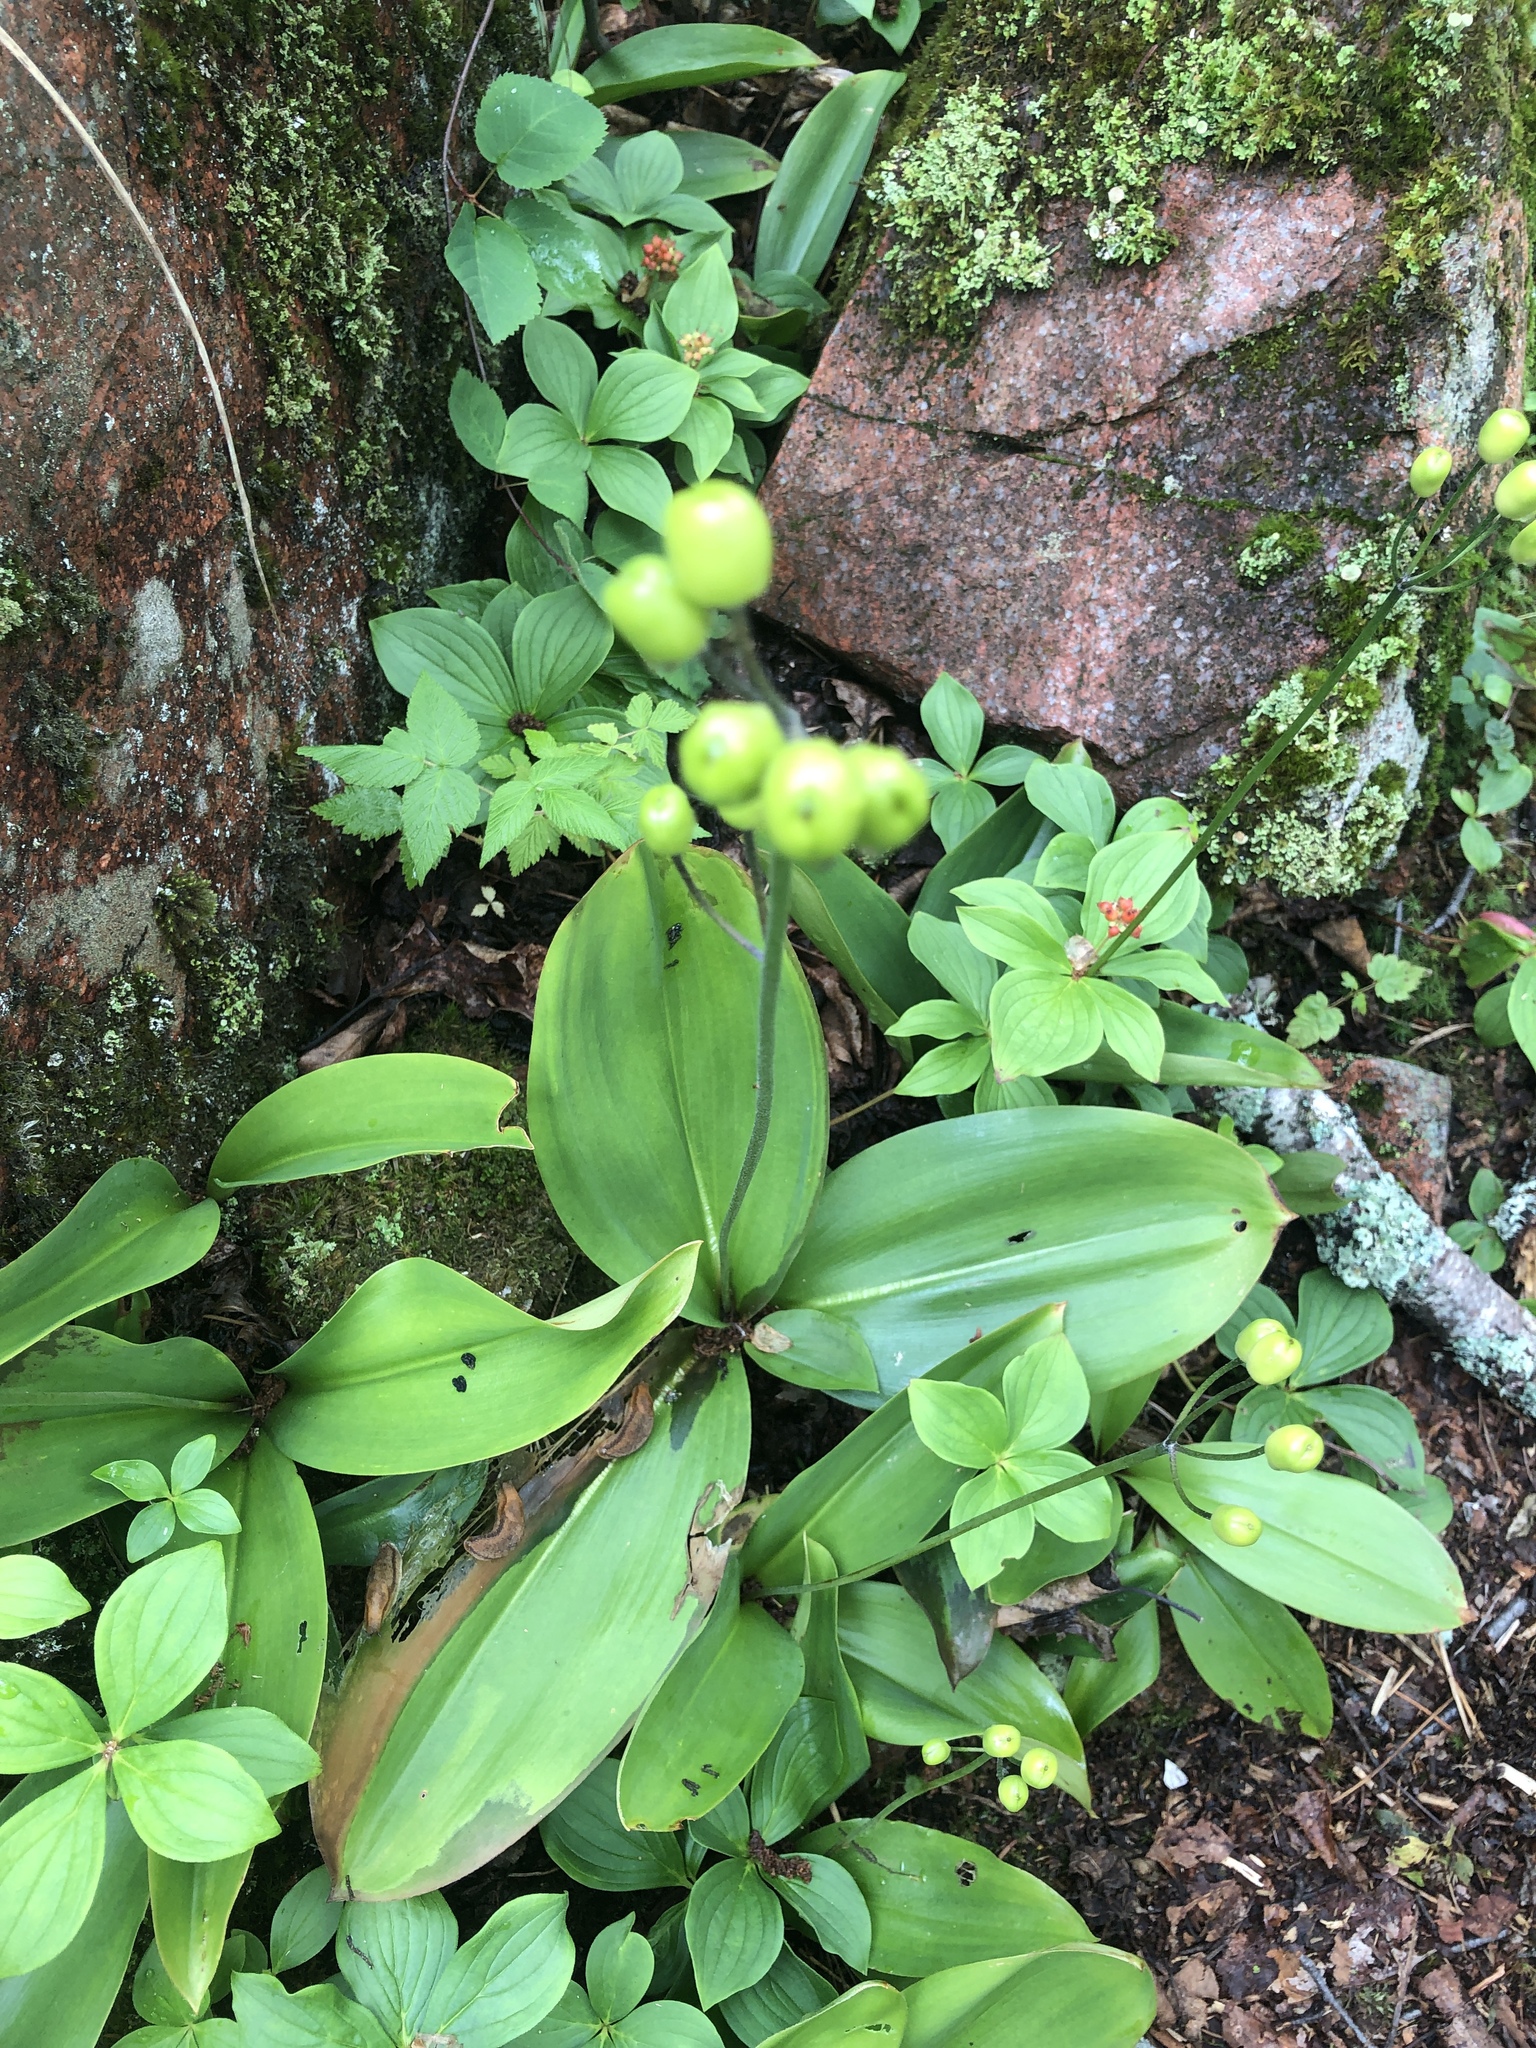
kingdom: Plantae
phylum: Tracheophyta
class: Liliopsida
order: Liliales
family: Liliaceae
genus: Clintonia
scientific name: Clintonia borealis
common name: Yellow clintonia
